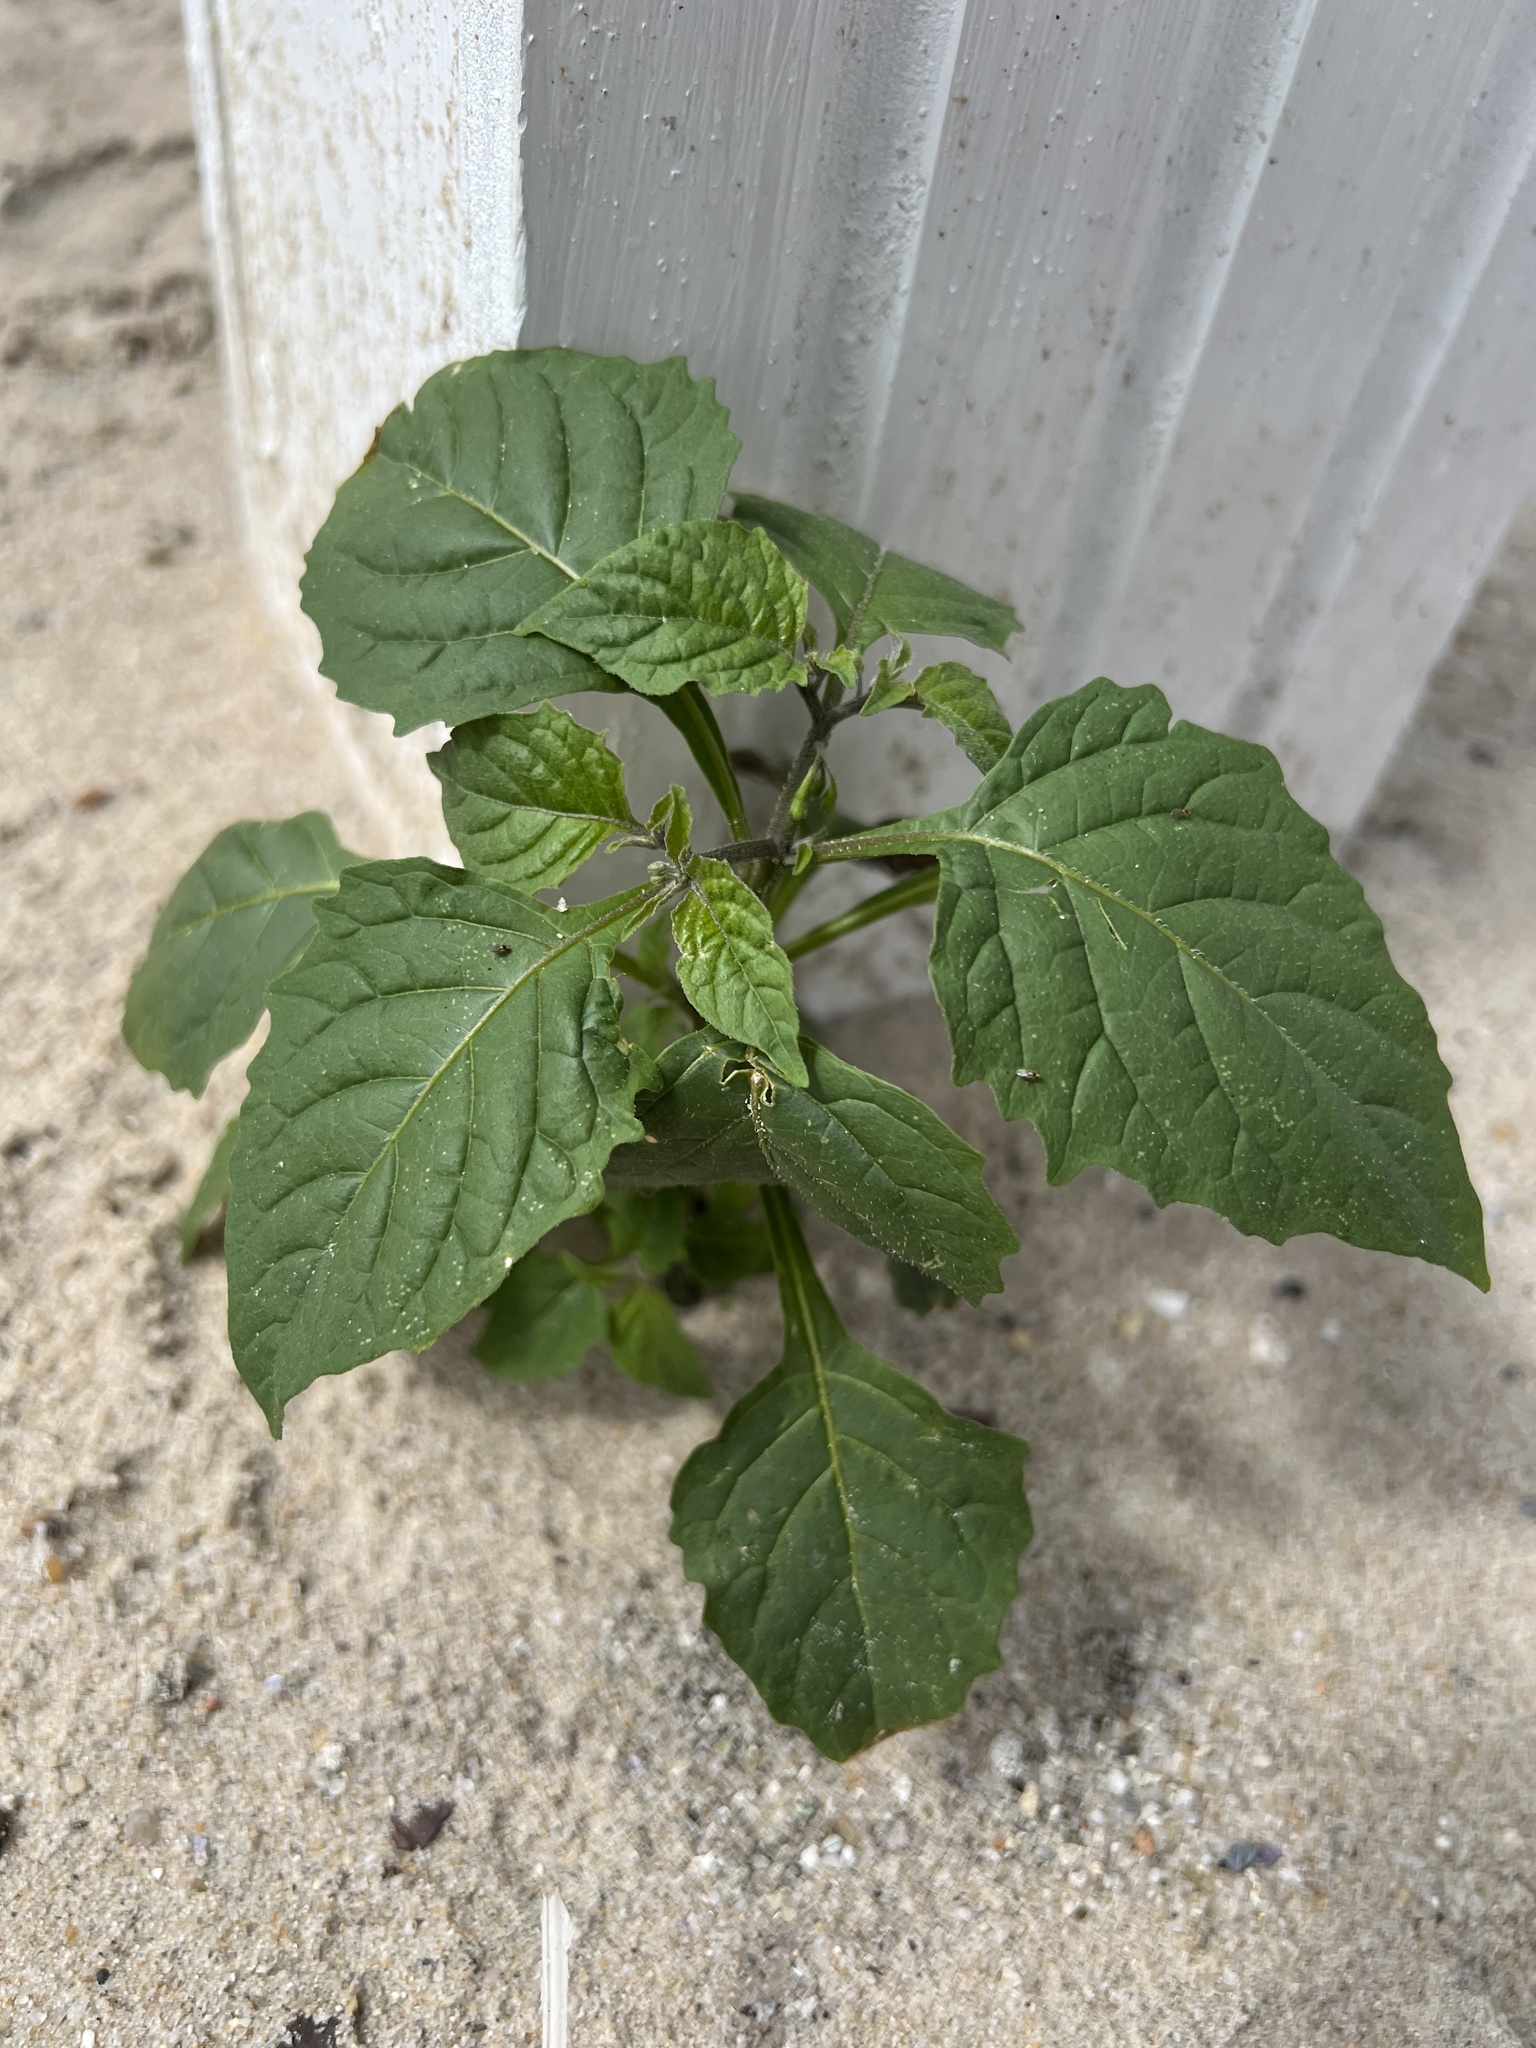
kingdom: Plantae
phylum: Tracheophyta
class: Magnoliopsida
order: Solanales
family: Solanaceae
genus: Solanum
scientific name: Solanum emulans
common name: Eastern black nightshade
